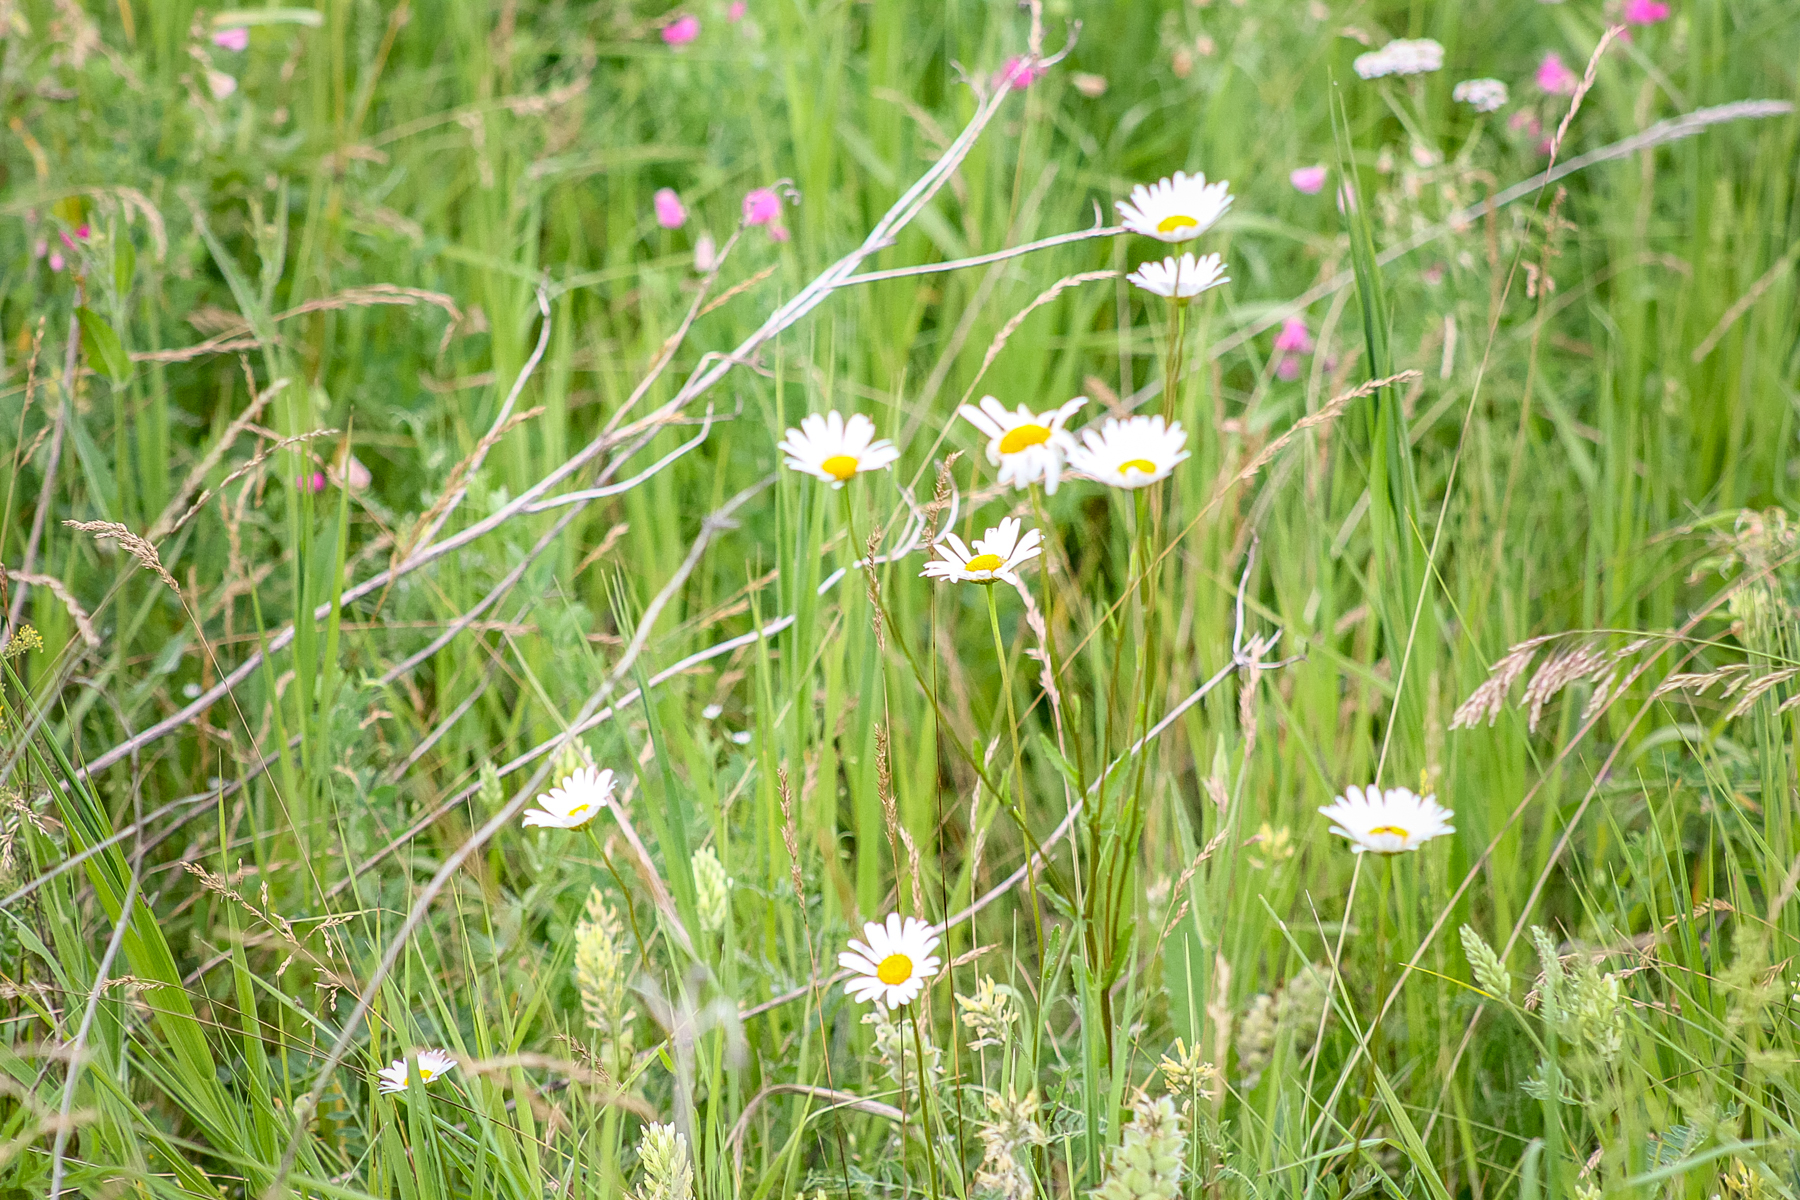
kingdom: Plantae
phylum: Tracheophyta
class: Magnoliopsida
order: Asterales
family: Asteraceae
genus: Leucanthemum
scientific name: Leucanthemum vulgare
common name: Oxeye daisy
